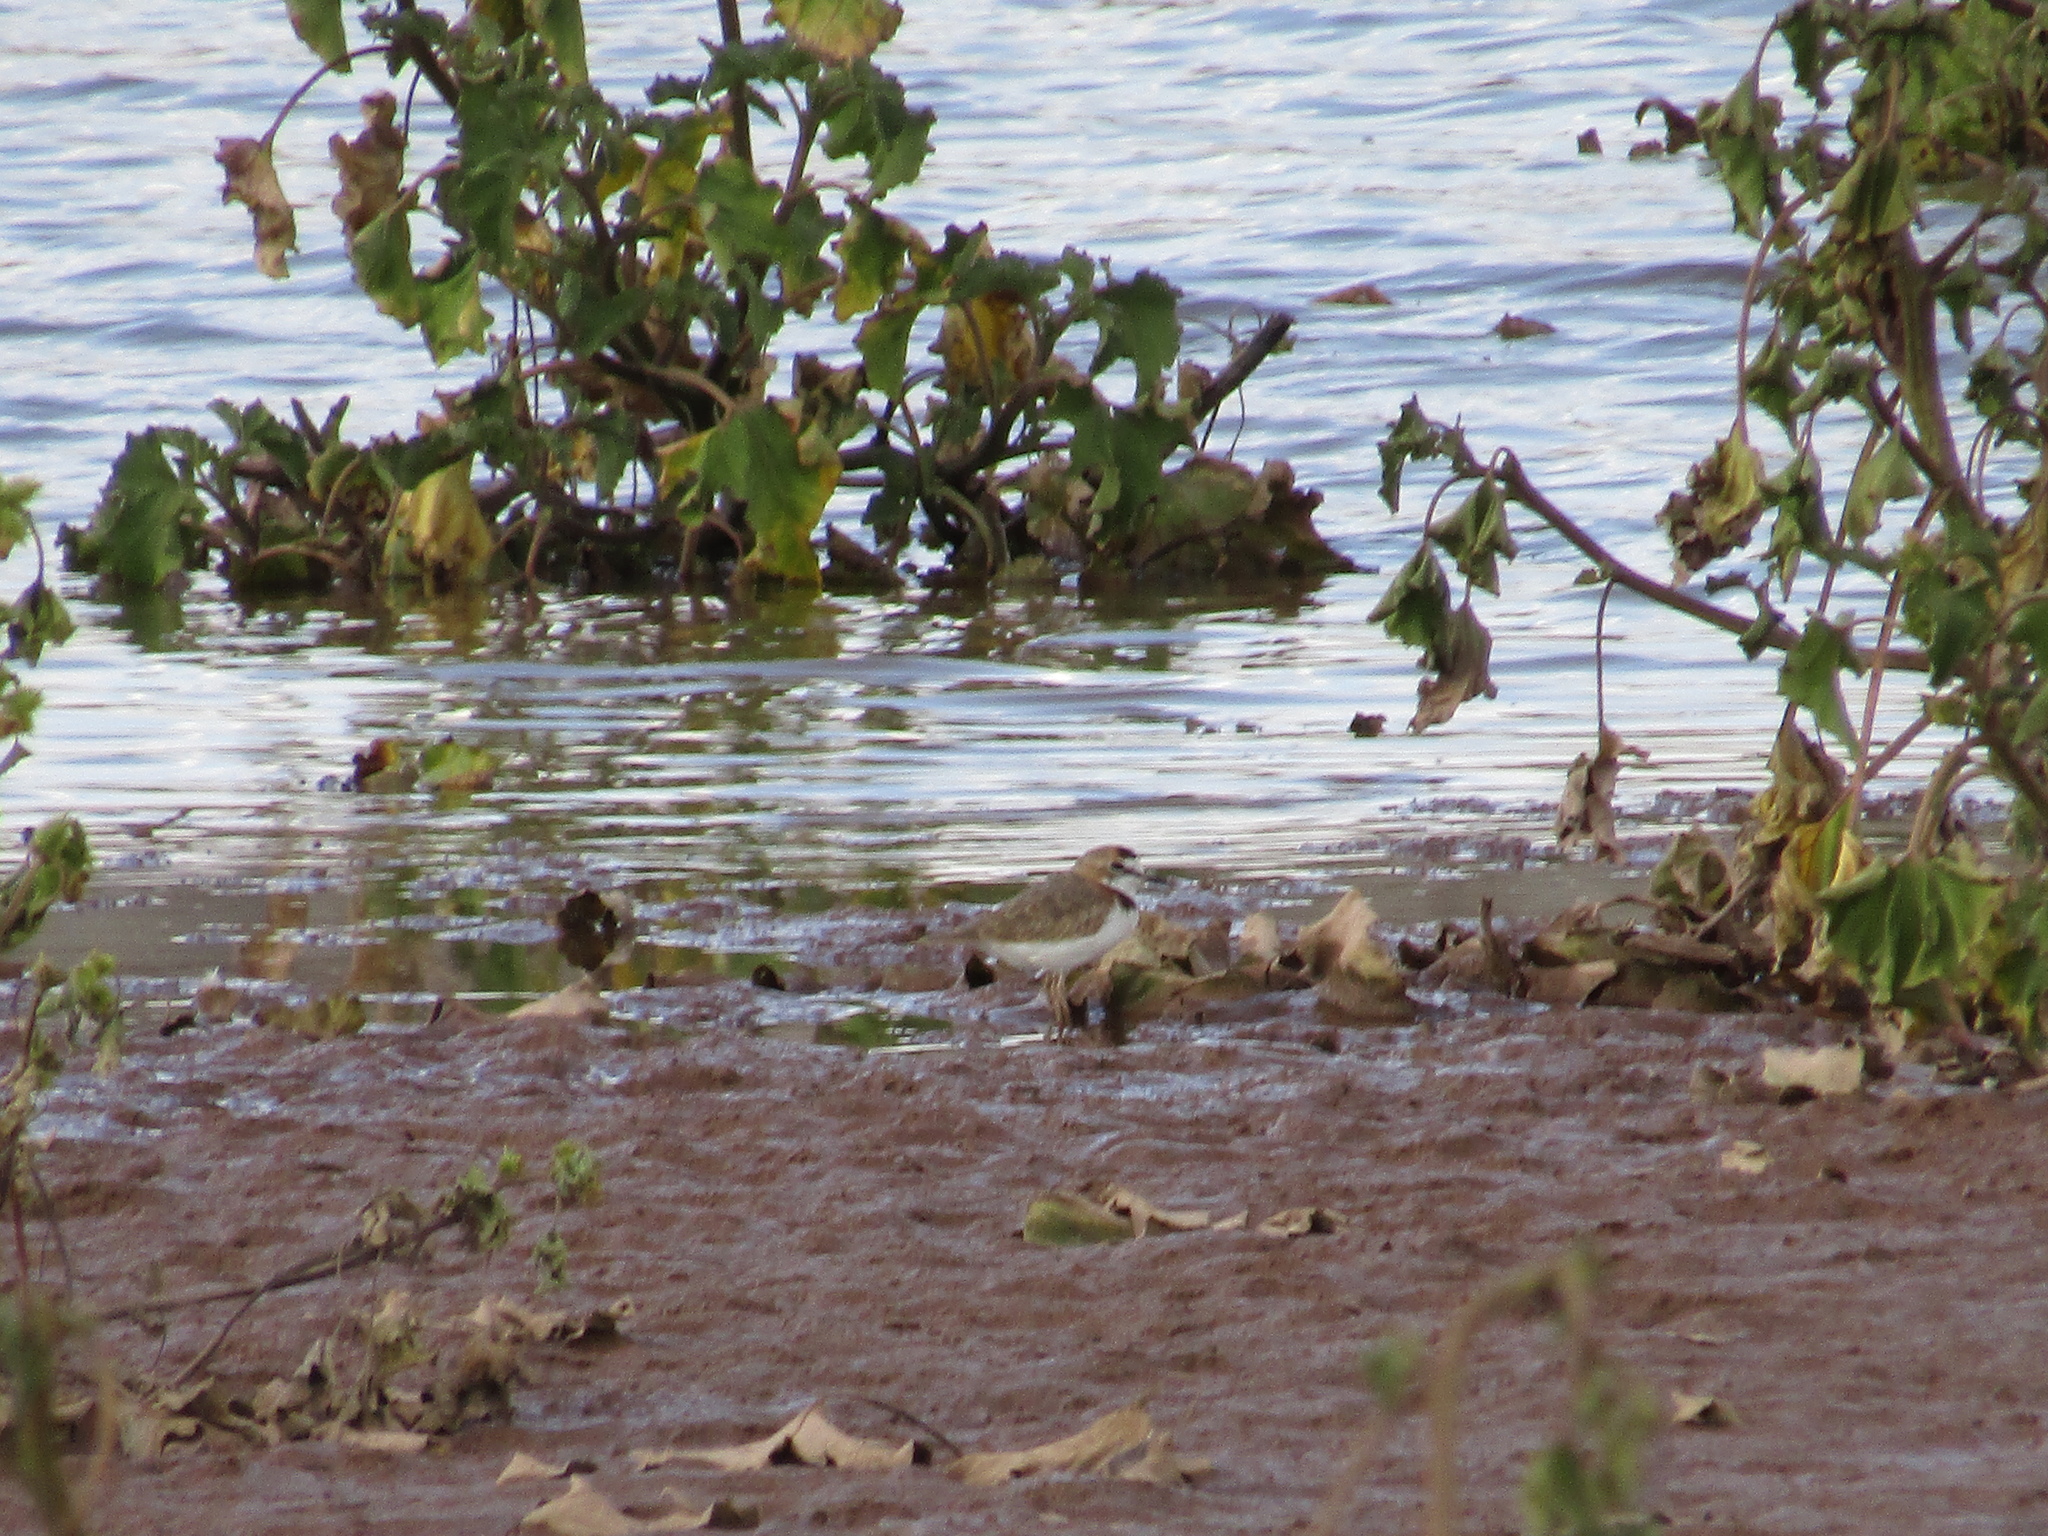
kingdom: Animalia
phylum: Chordata
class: Aves
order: Charadriiformes
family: Charadriidae
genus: Anarhynchus
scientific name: Anarhynchus
